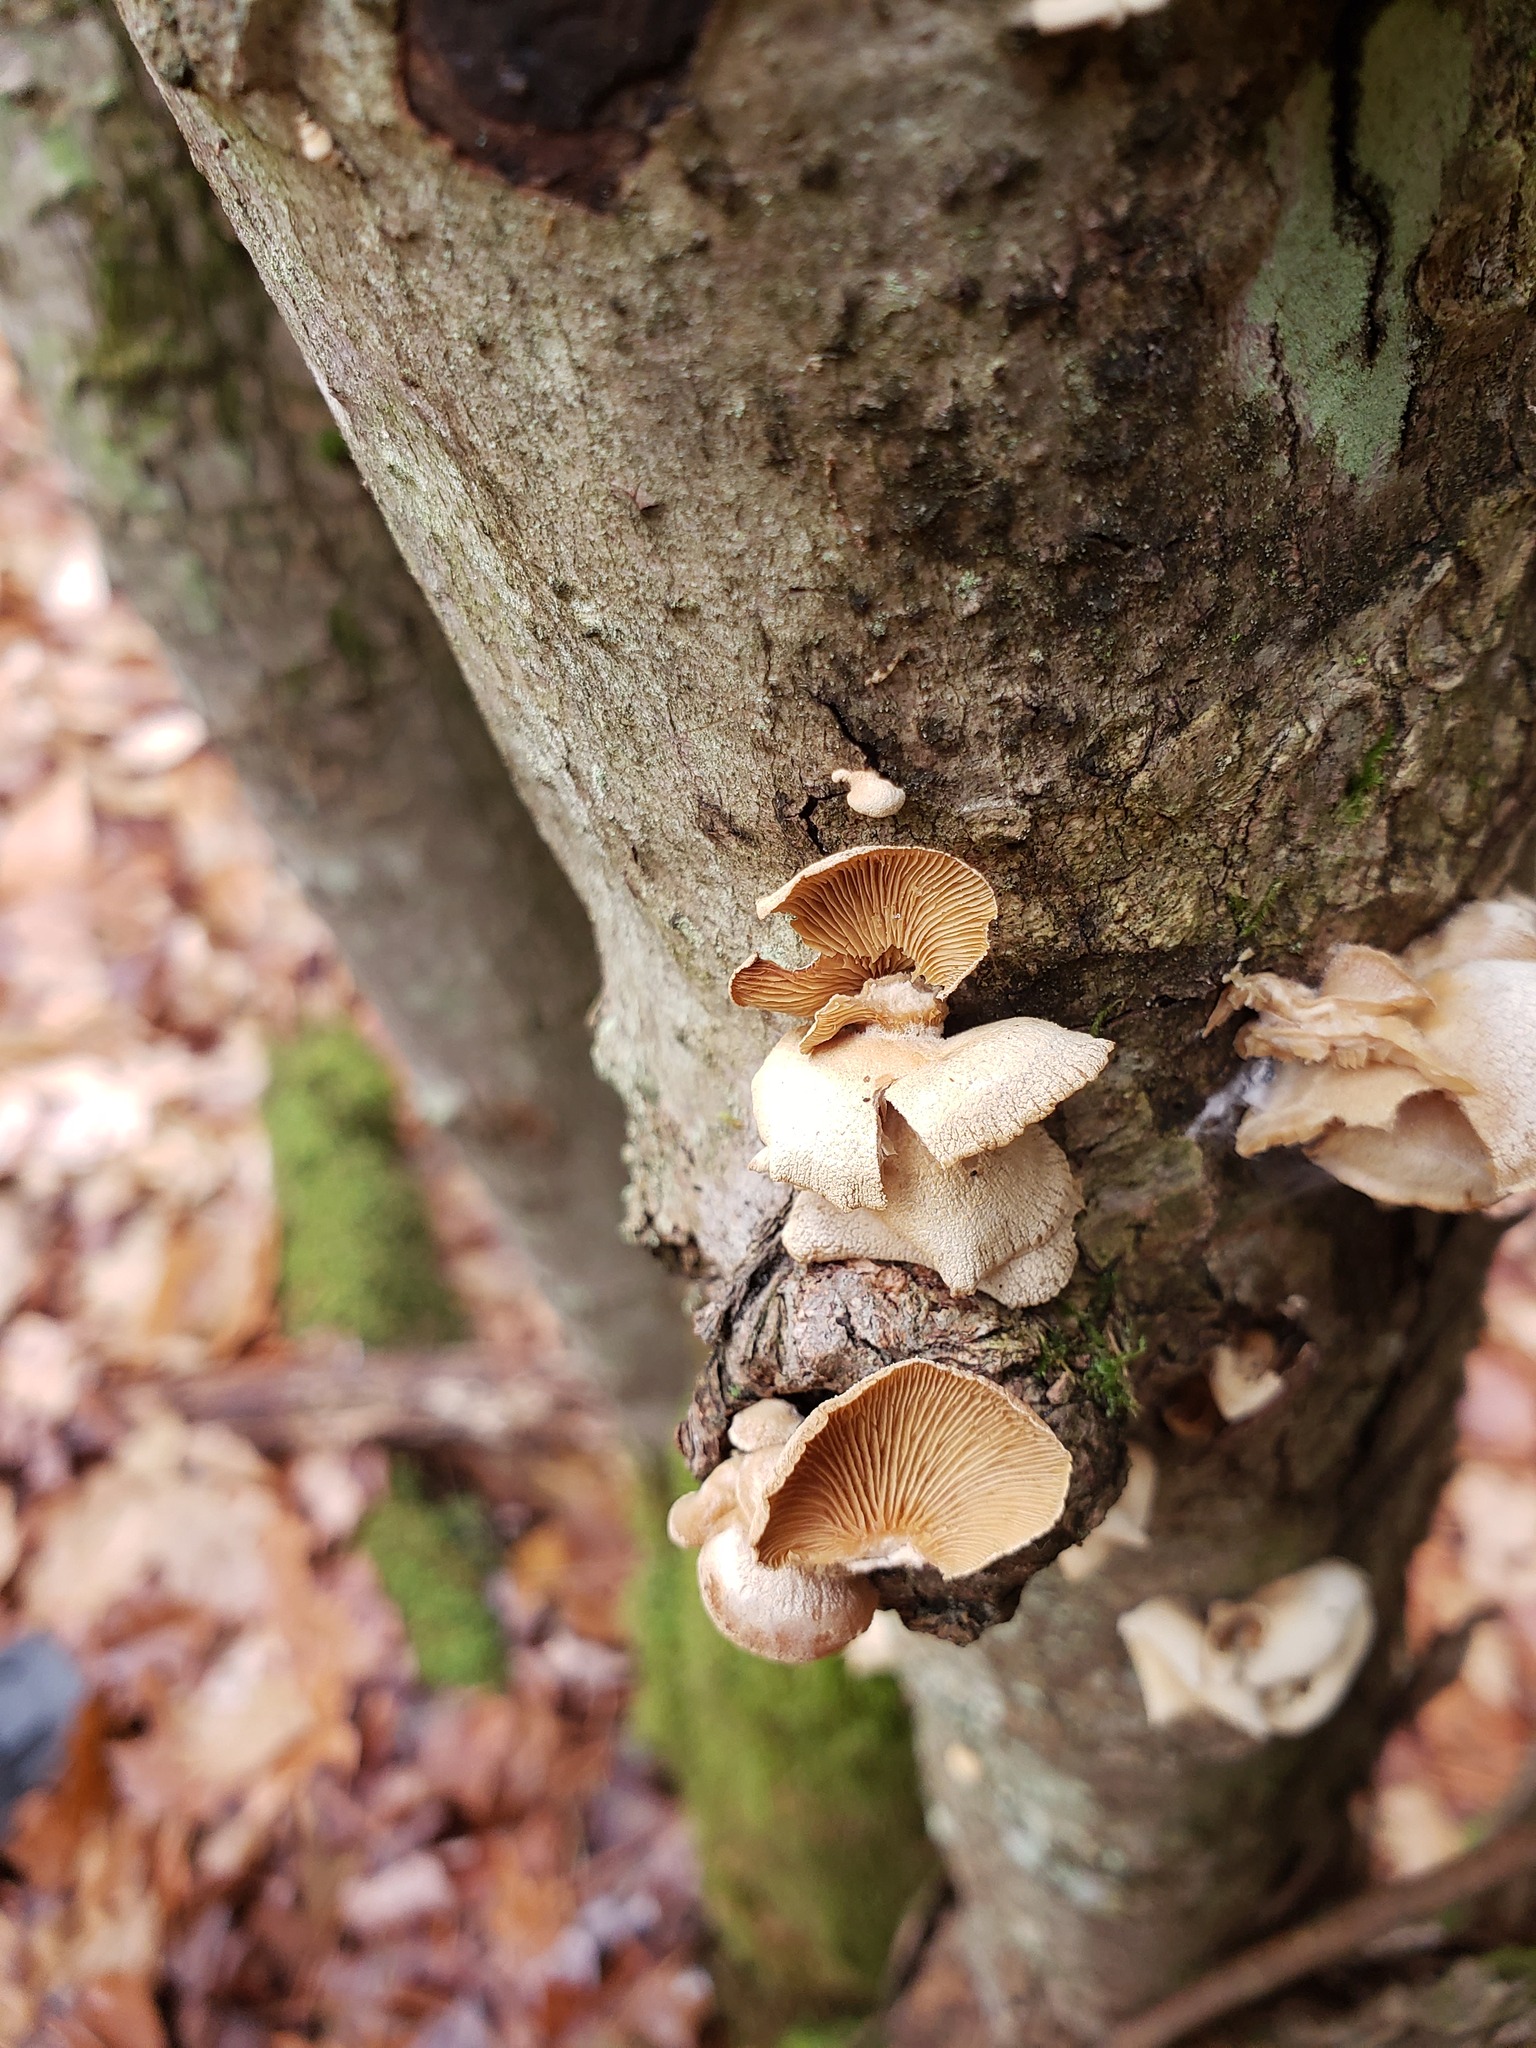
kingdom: Fungi
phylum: Basidiomycota
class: Agaricomycetes
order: Agaricales
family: Mycenaceae
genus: Panellus
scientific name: Panellus stipticus
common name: Bitter oysterling
